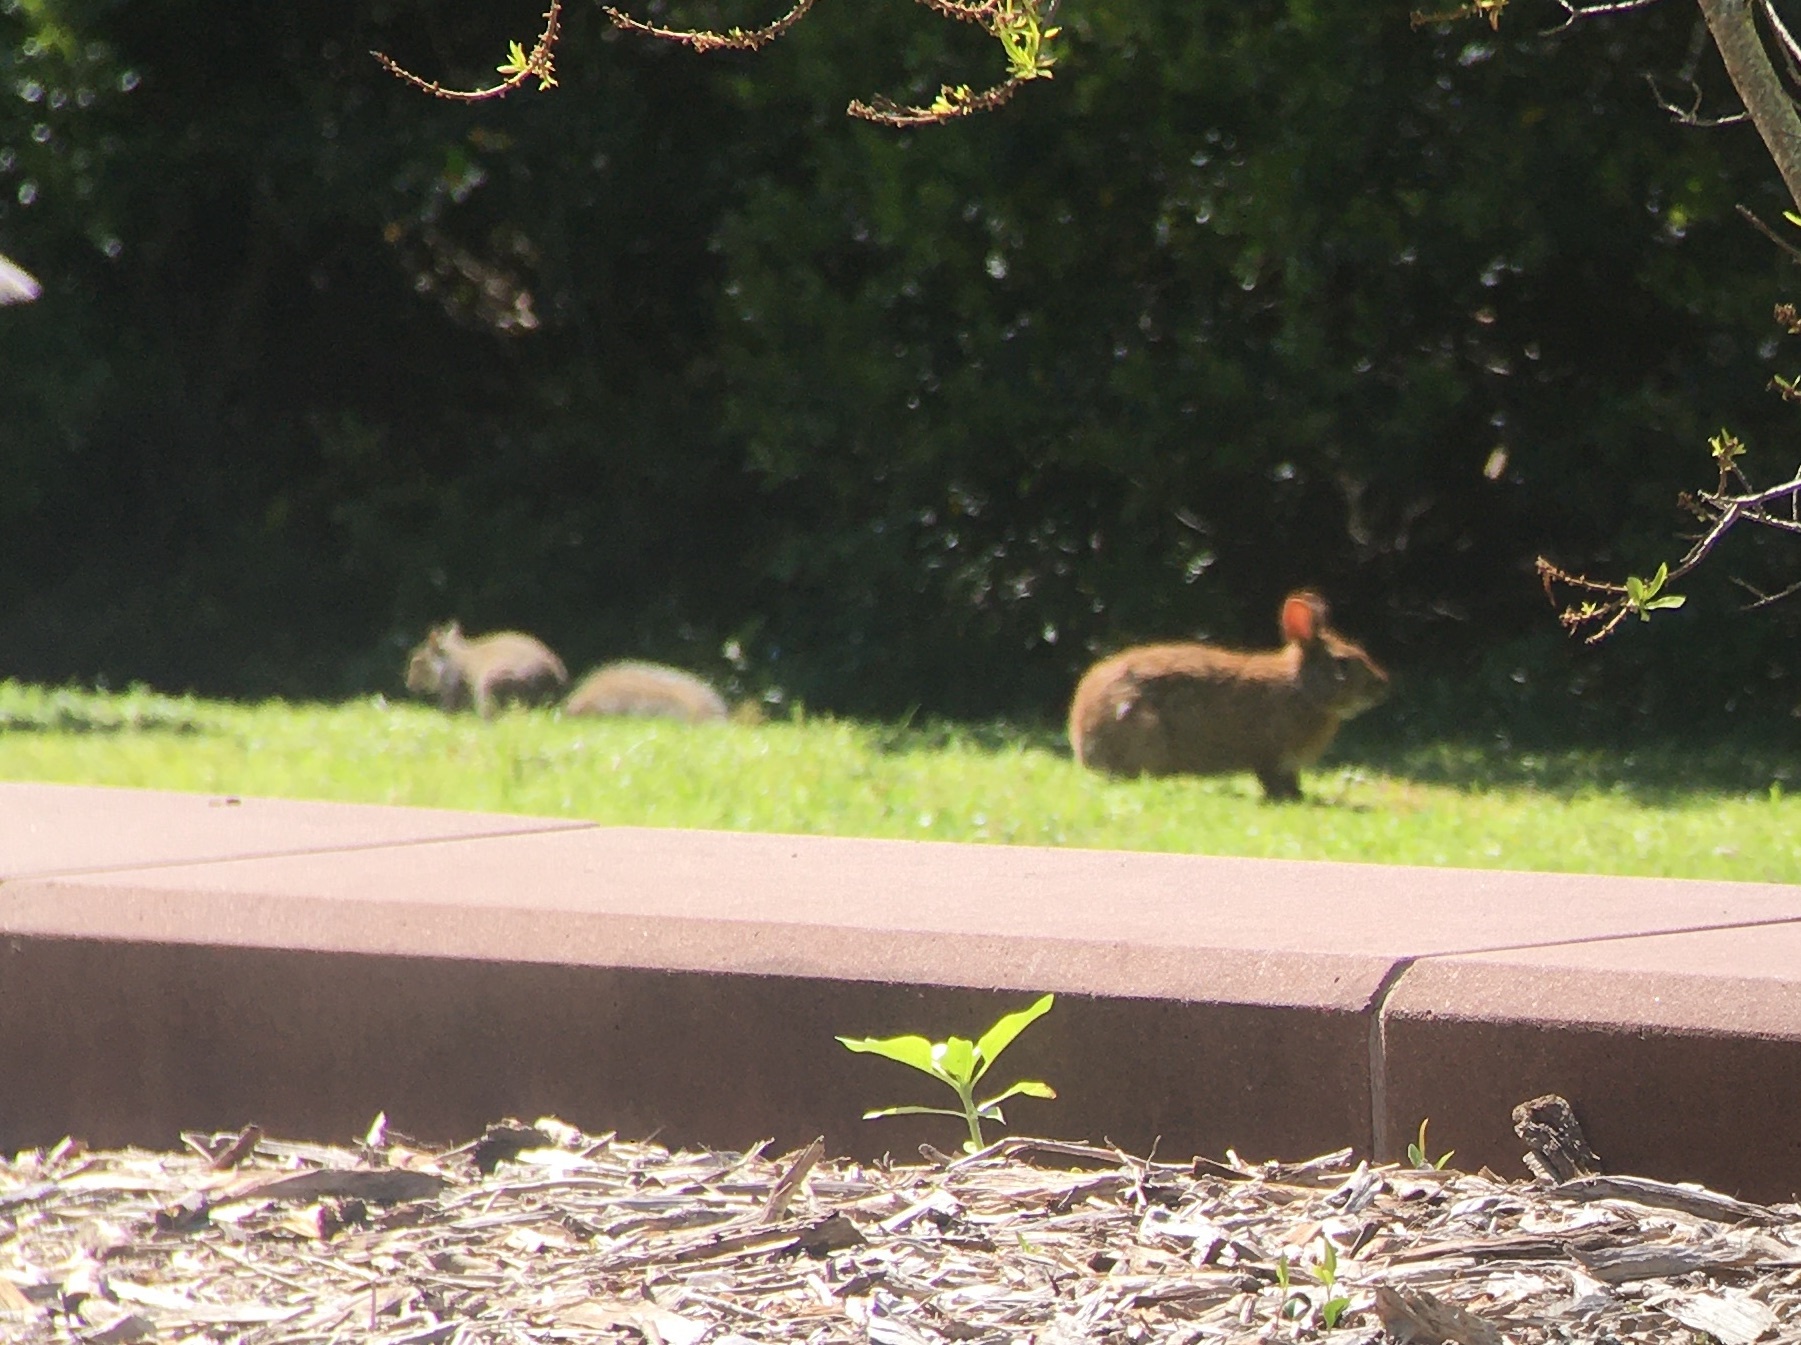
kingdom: Animalia
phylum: Chordata
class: Mammalia
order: Lagomorpha
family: Leporidae
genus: Sylvilagus
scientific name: Sylvilagus palustris
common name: Marsh rabbit
